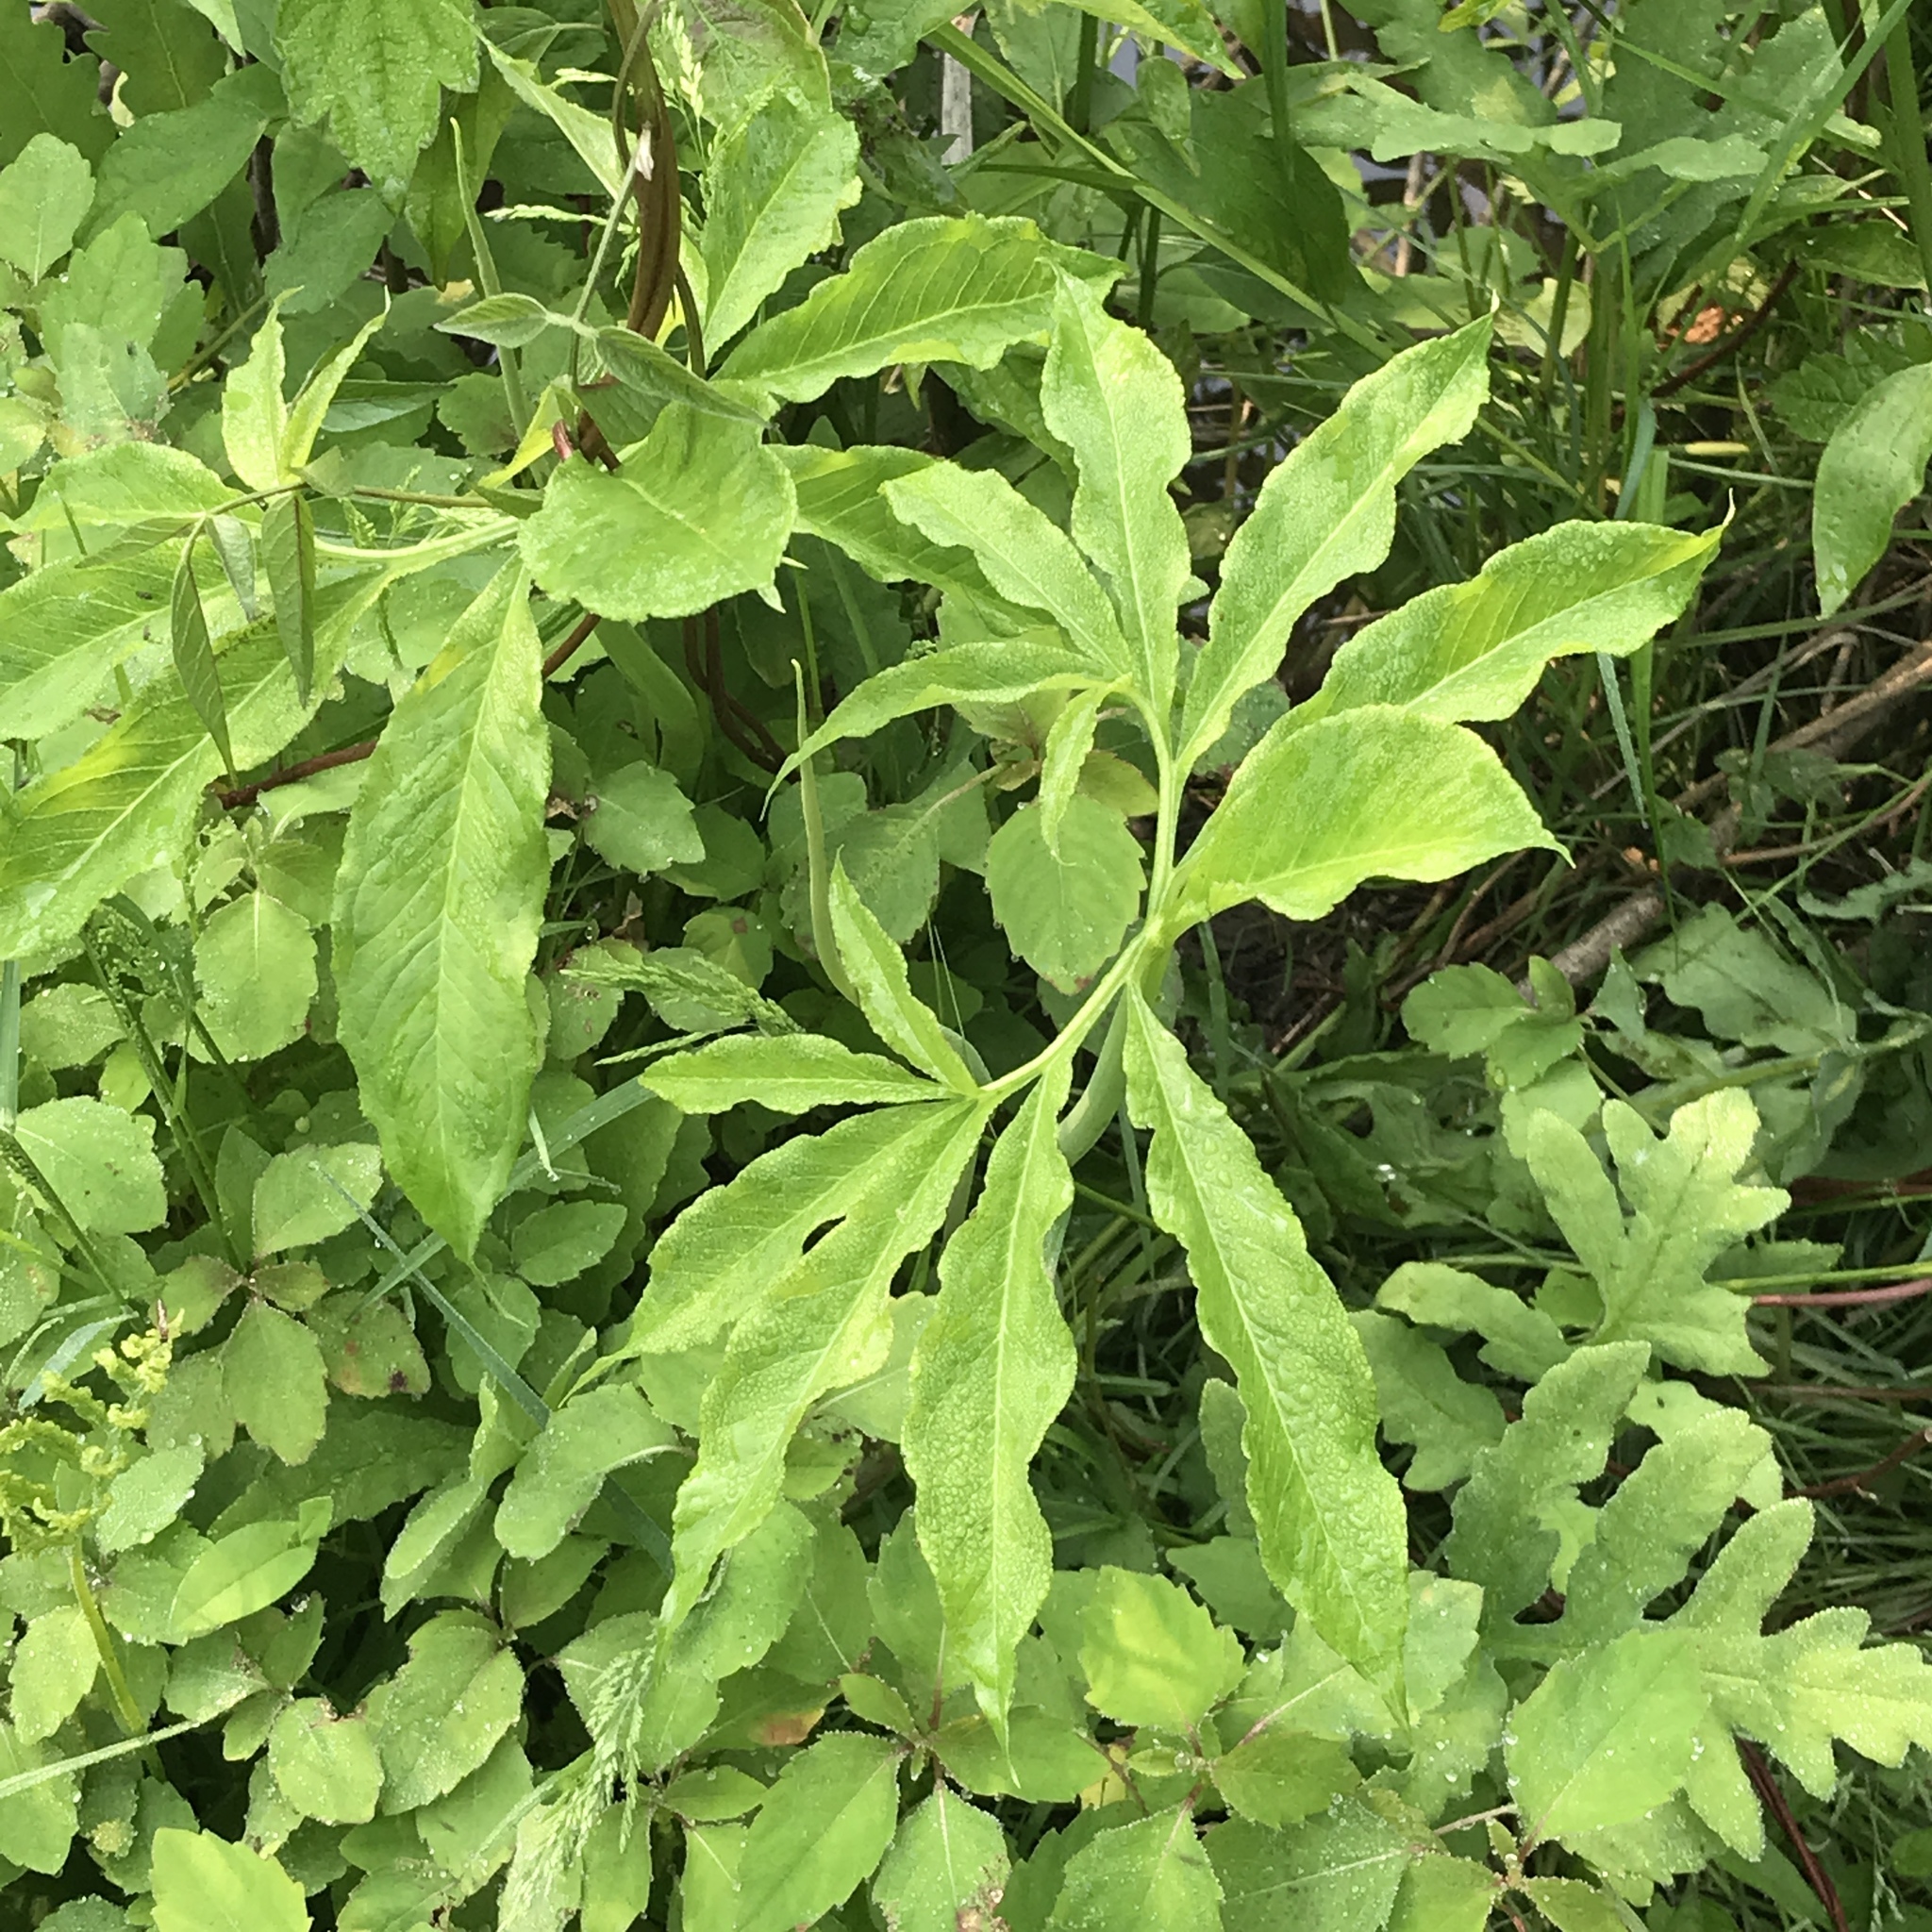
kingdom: Plantae
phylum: Tracheophyta
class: Liliopsida
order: Alismatales
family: Araceae
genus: Arisaema
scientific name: Arisaema dracontium
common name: Dragon-arum
